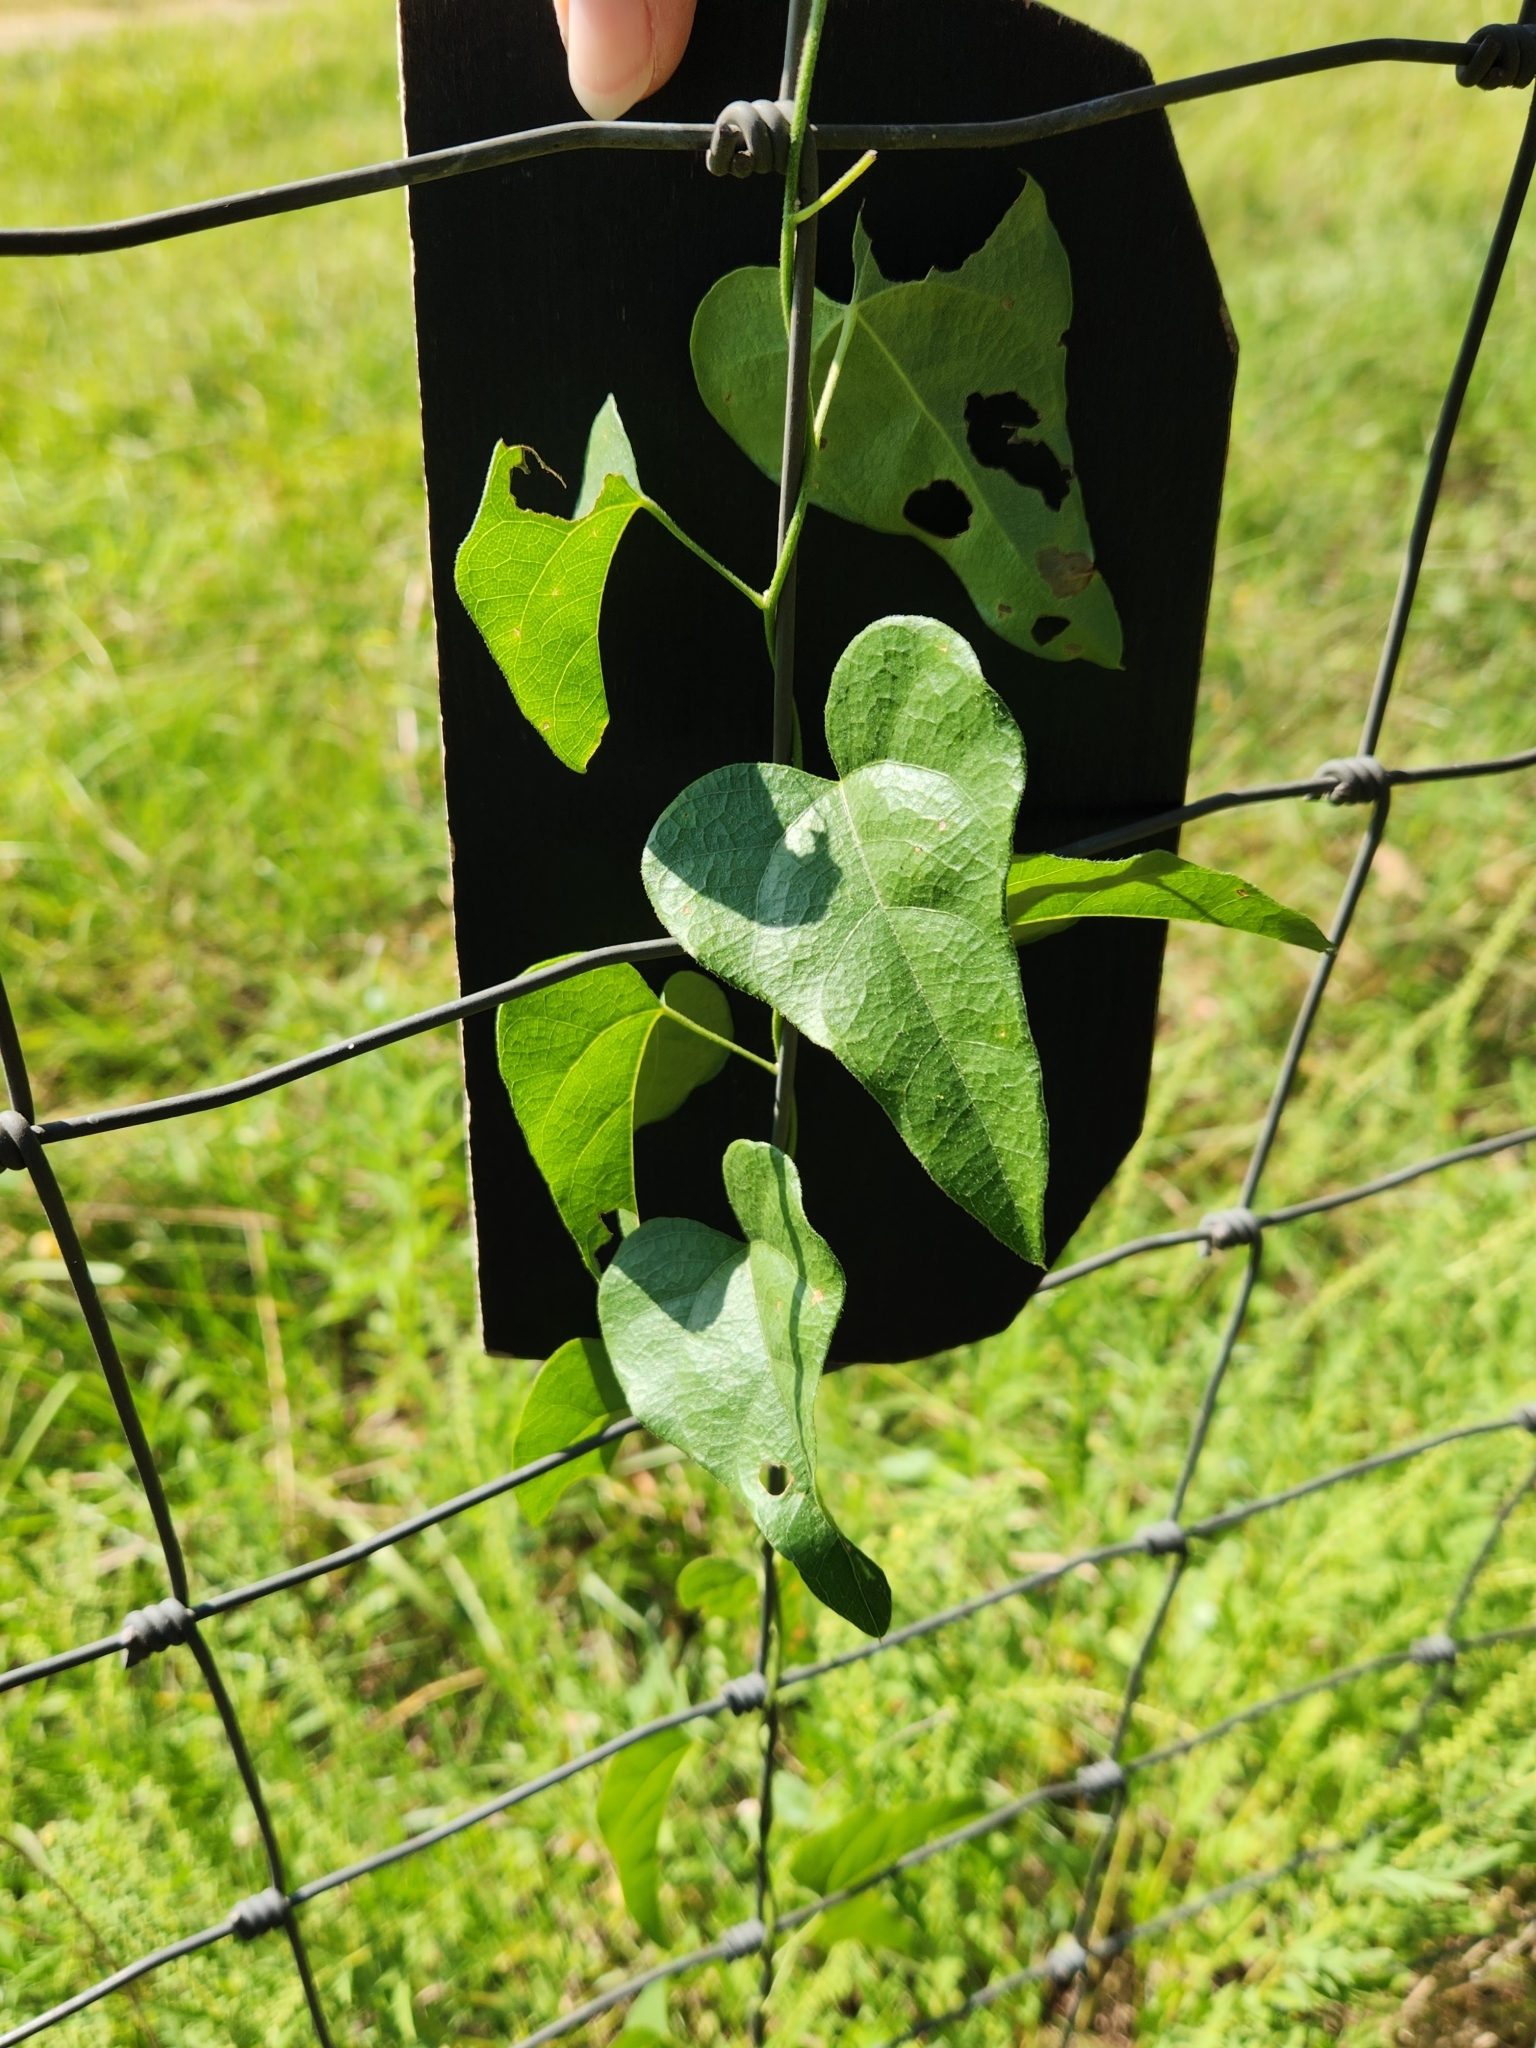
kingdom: Plantae
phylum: Tracheophyta
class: Magnoliopsida
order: Ranunculales
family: Menispermaceae
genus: Cocculus
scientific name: Cocculus carolinus
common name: Carolina moonseed
